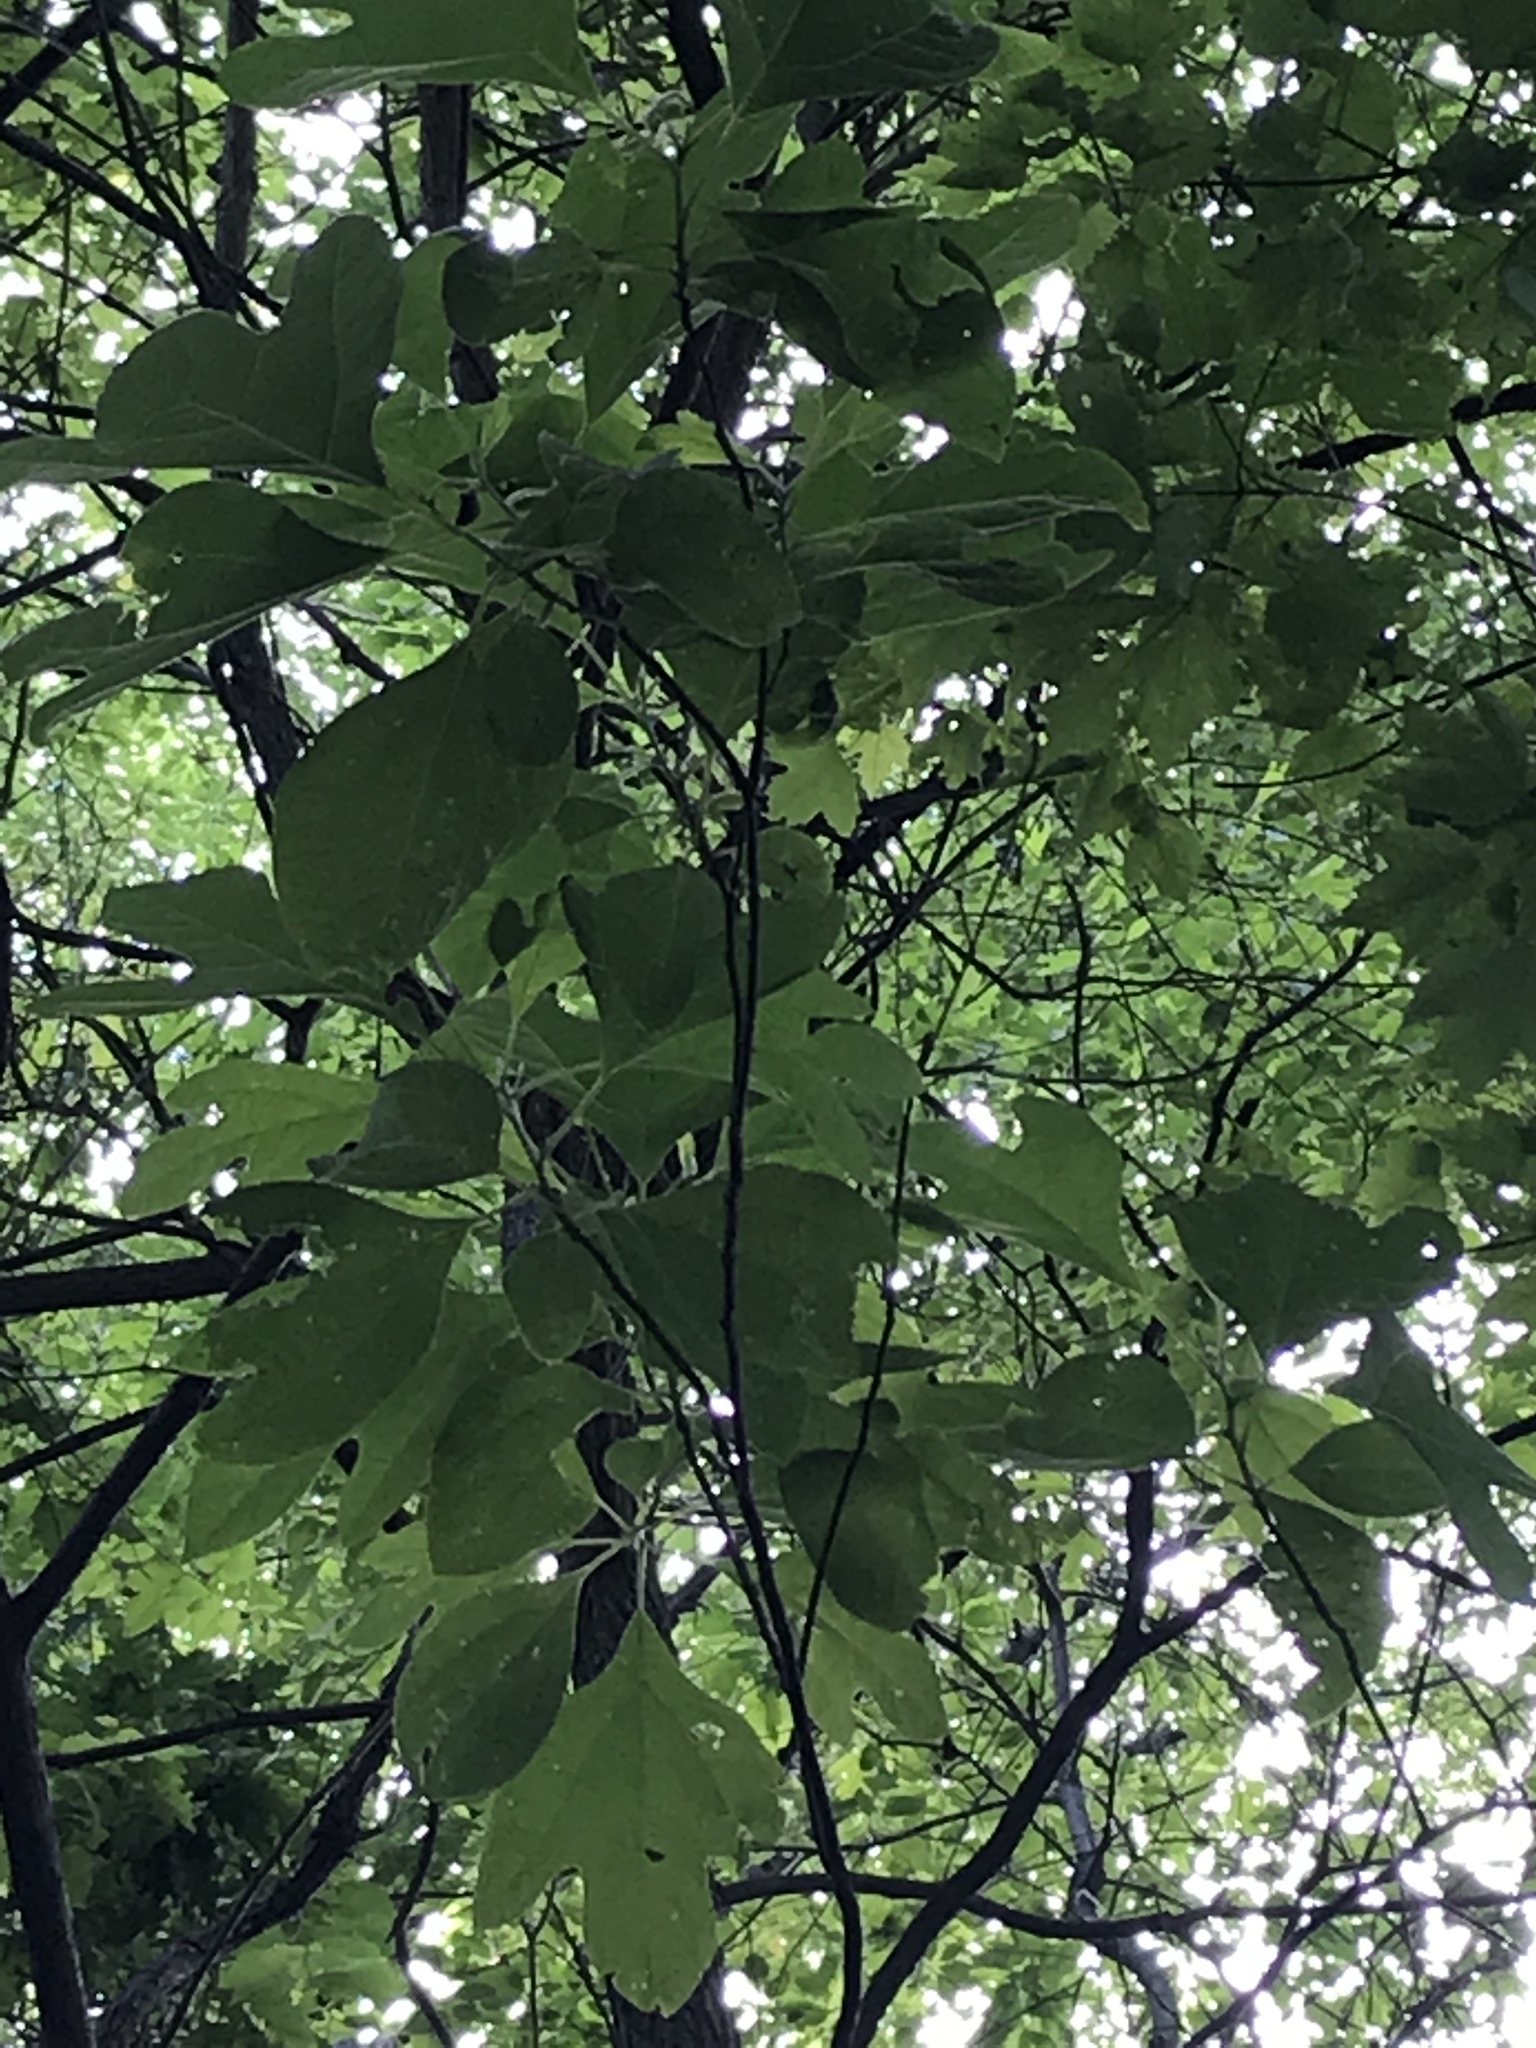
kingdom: Plantae
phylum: Tracheophyta
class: Magnoliopsida
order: Laurales
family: Lauraceae
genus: Sassafras
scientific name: Sassafras albidum
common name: Sassafras
